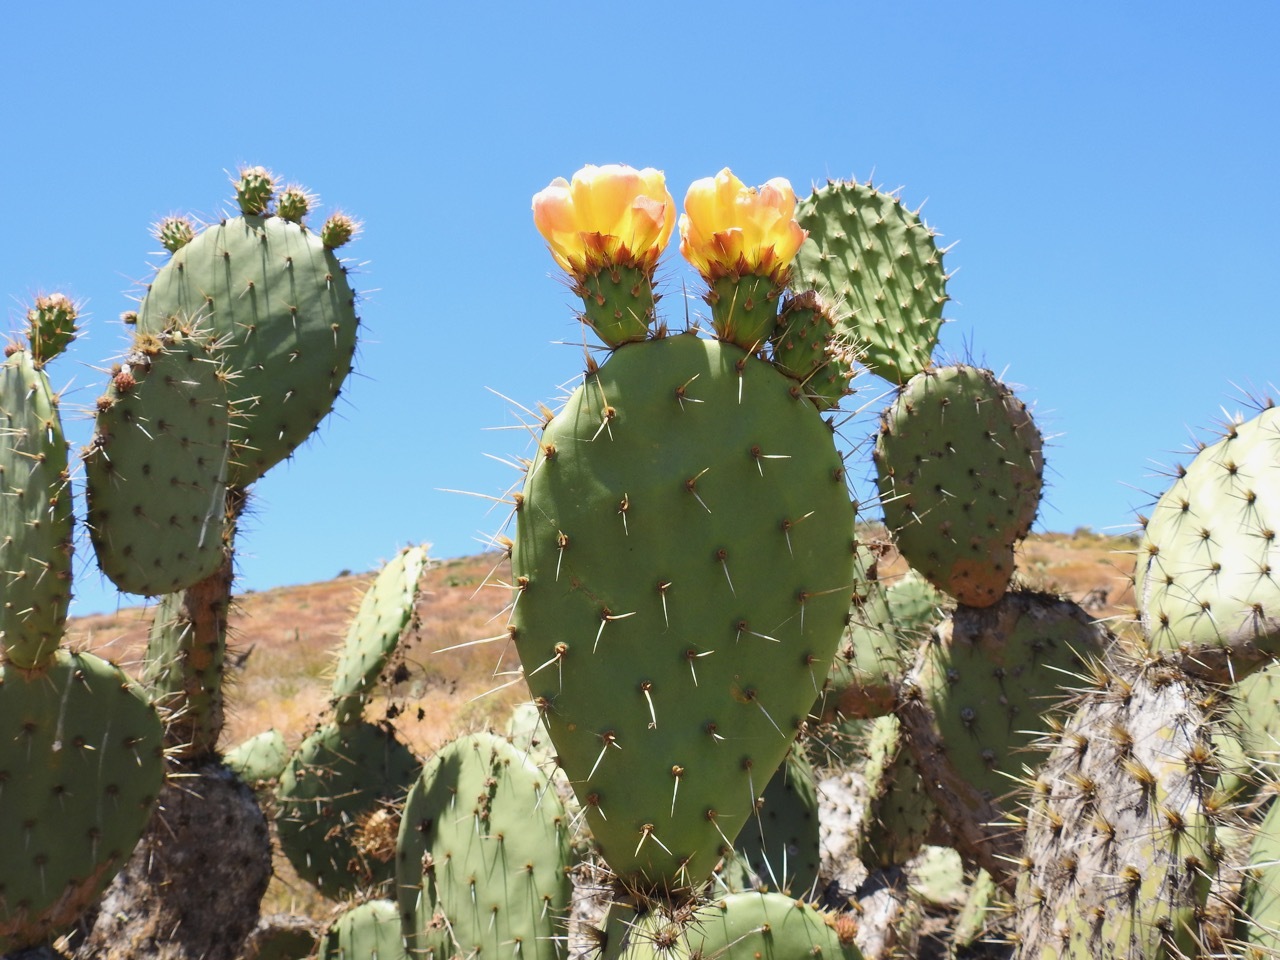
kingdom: Plantae
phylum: Tracheophyta
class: Magnoliopsida
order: Caryophyllales
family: Cactaceae
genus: Opuntia
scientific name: Opuntia oricola
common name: Chaparral prickly-pear
